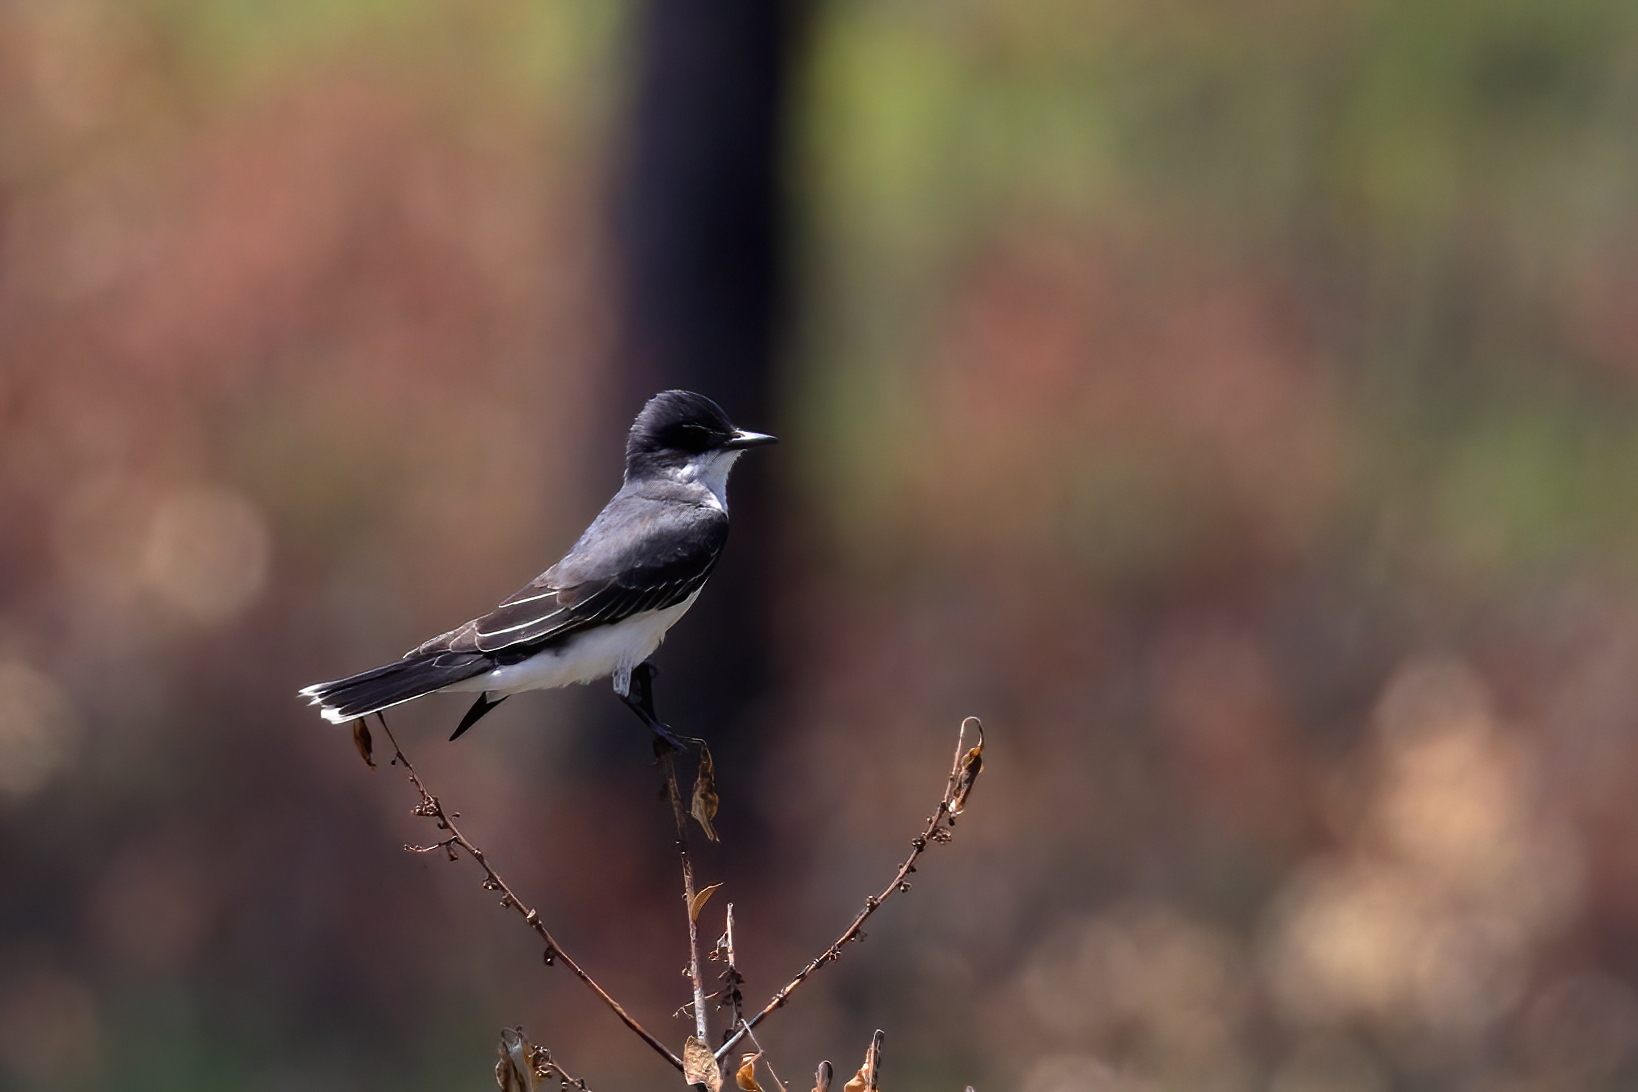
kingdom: Animalia
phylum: Chordata
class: Aves
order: Passeriformes
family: Tyrannidae
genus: Tyrannus
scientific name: Tyrannus tyrannus
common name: Eastern kingbird
